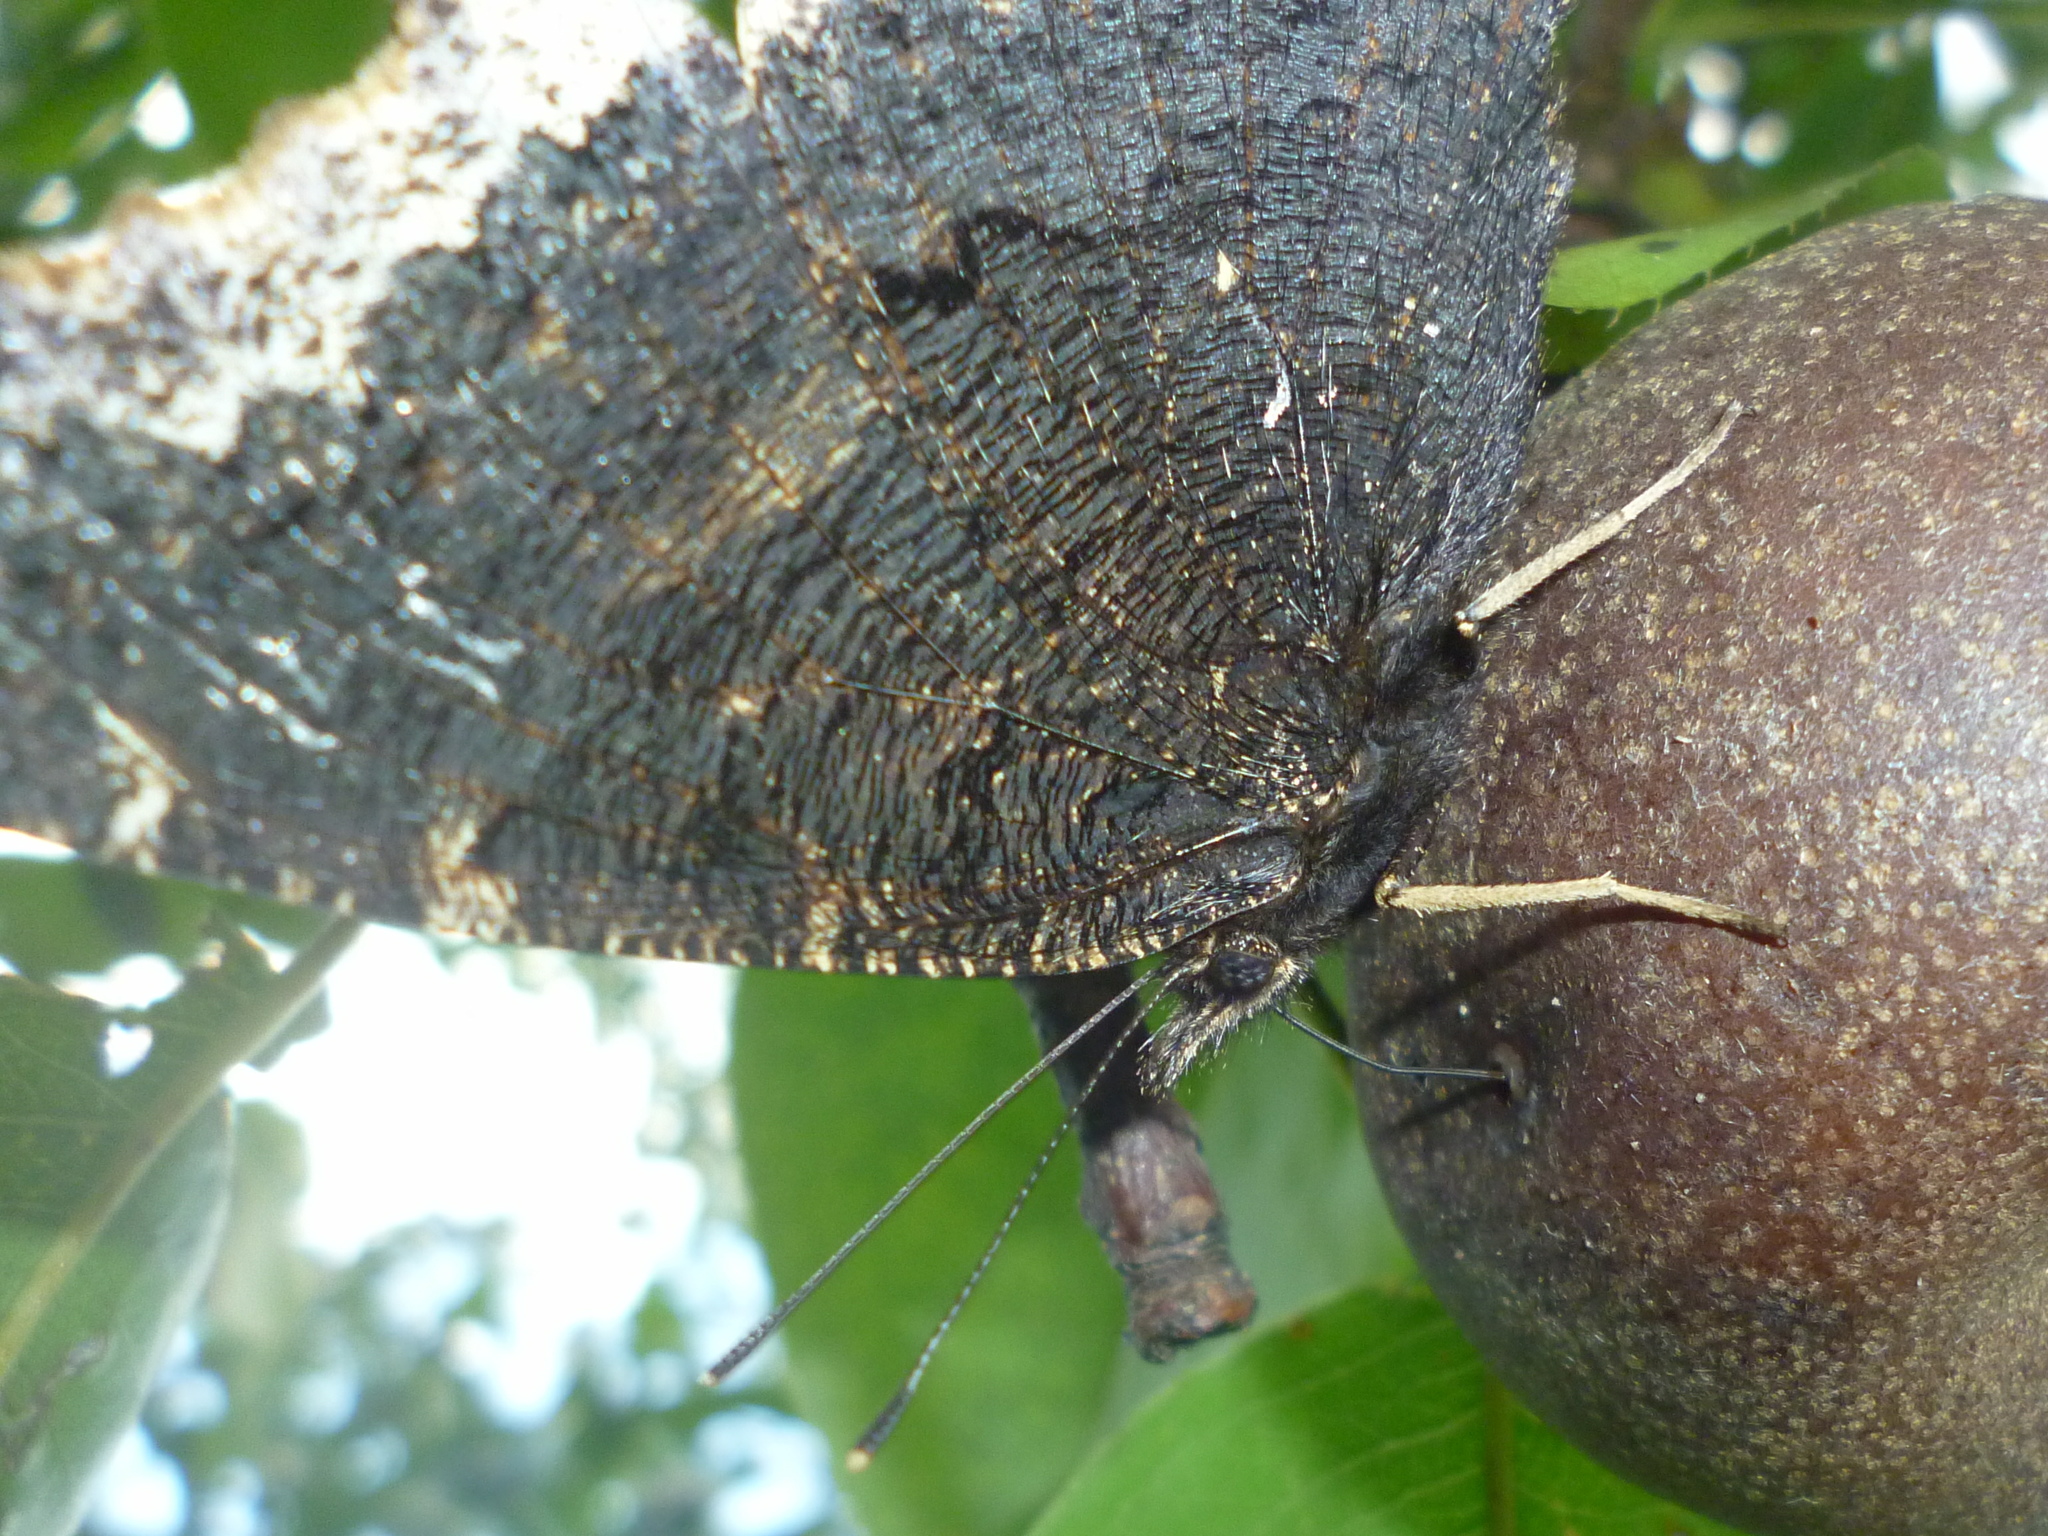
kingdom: Animalia
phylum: Arthropoda
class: Insecta
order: Lepidoptera
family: Nymphalidae
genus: Nymphalis
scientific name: Nymphalis antiopa
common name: Camberwell beauty
